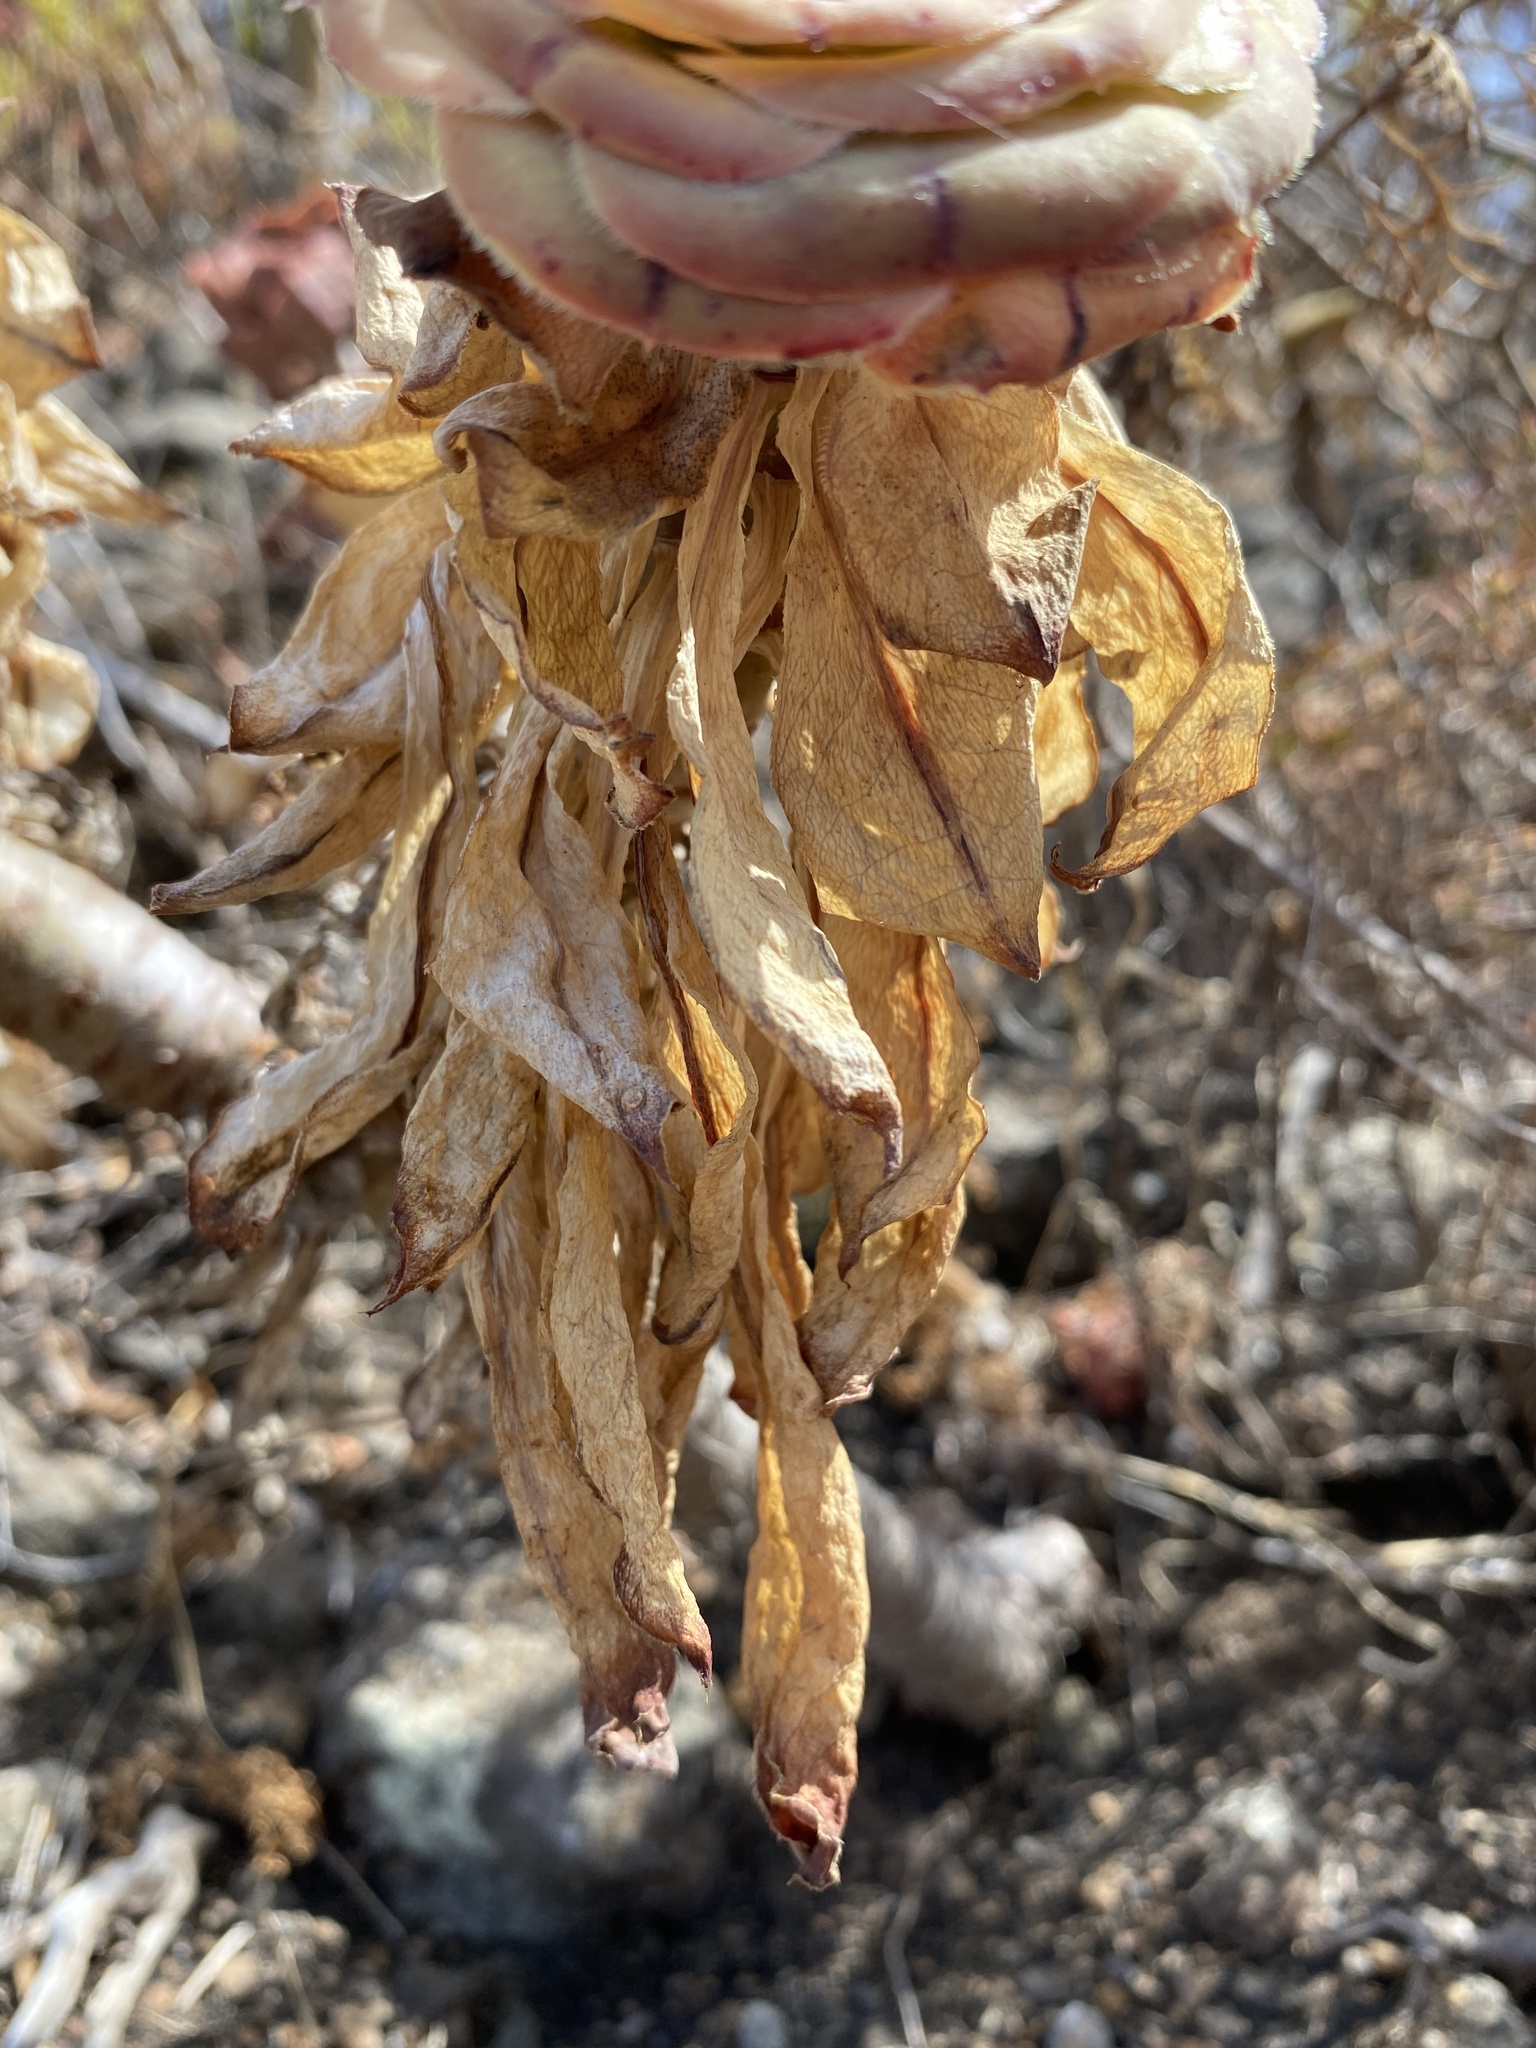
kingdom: Plantae
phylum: Tracheophyta
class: Magnoliopsida
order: Saxifragales
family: Crassulaceae
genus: Aeonium
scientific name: Aeonium arboreum
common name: Tree aeonium
